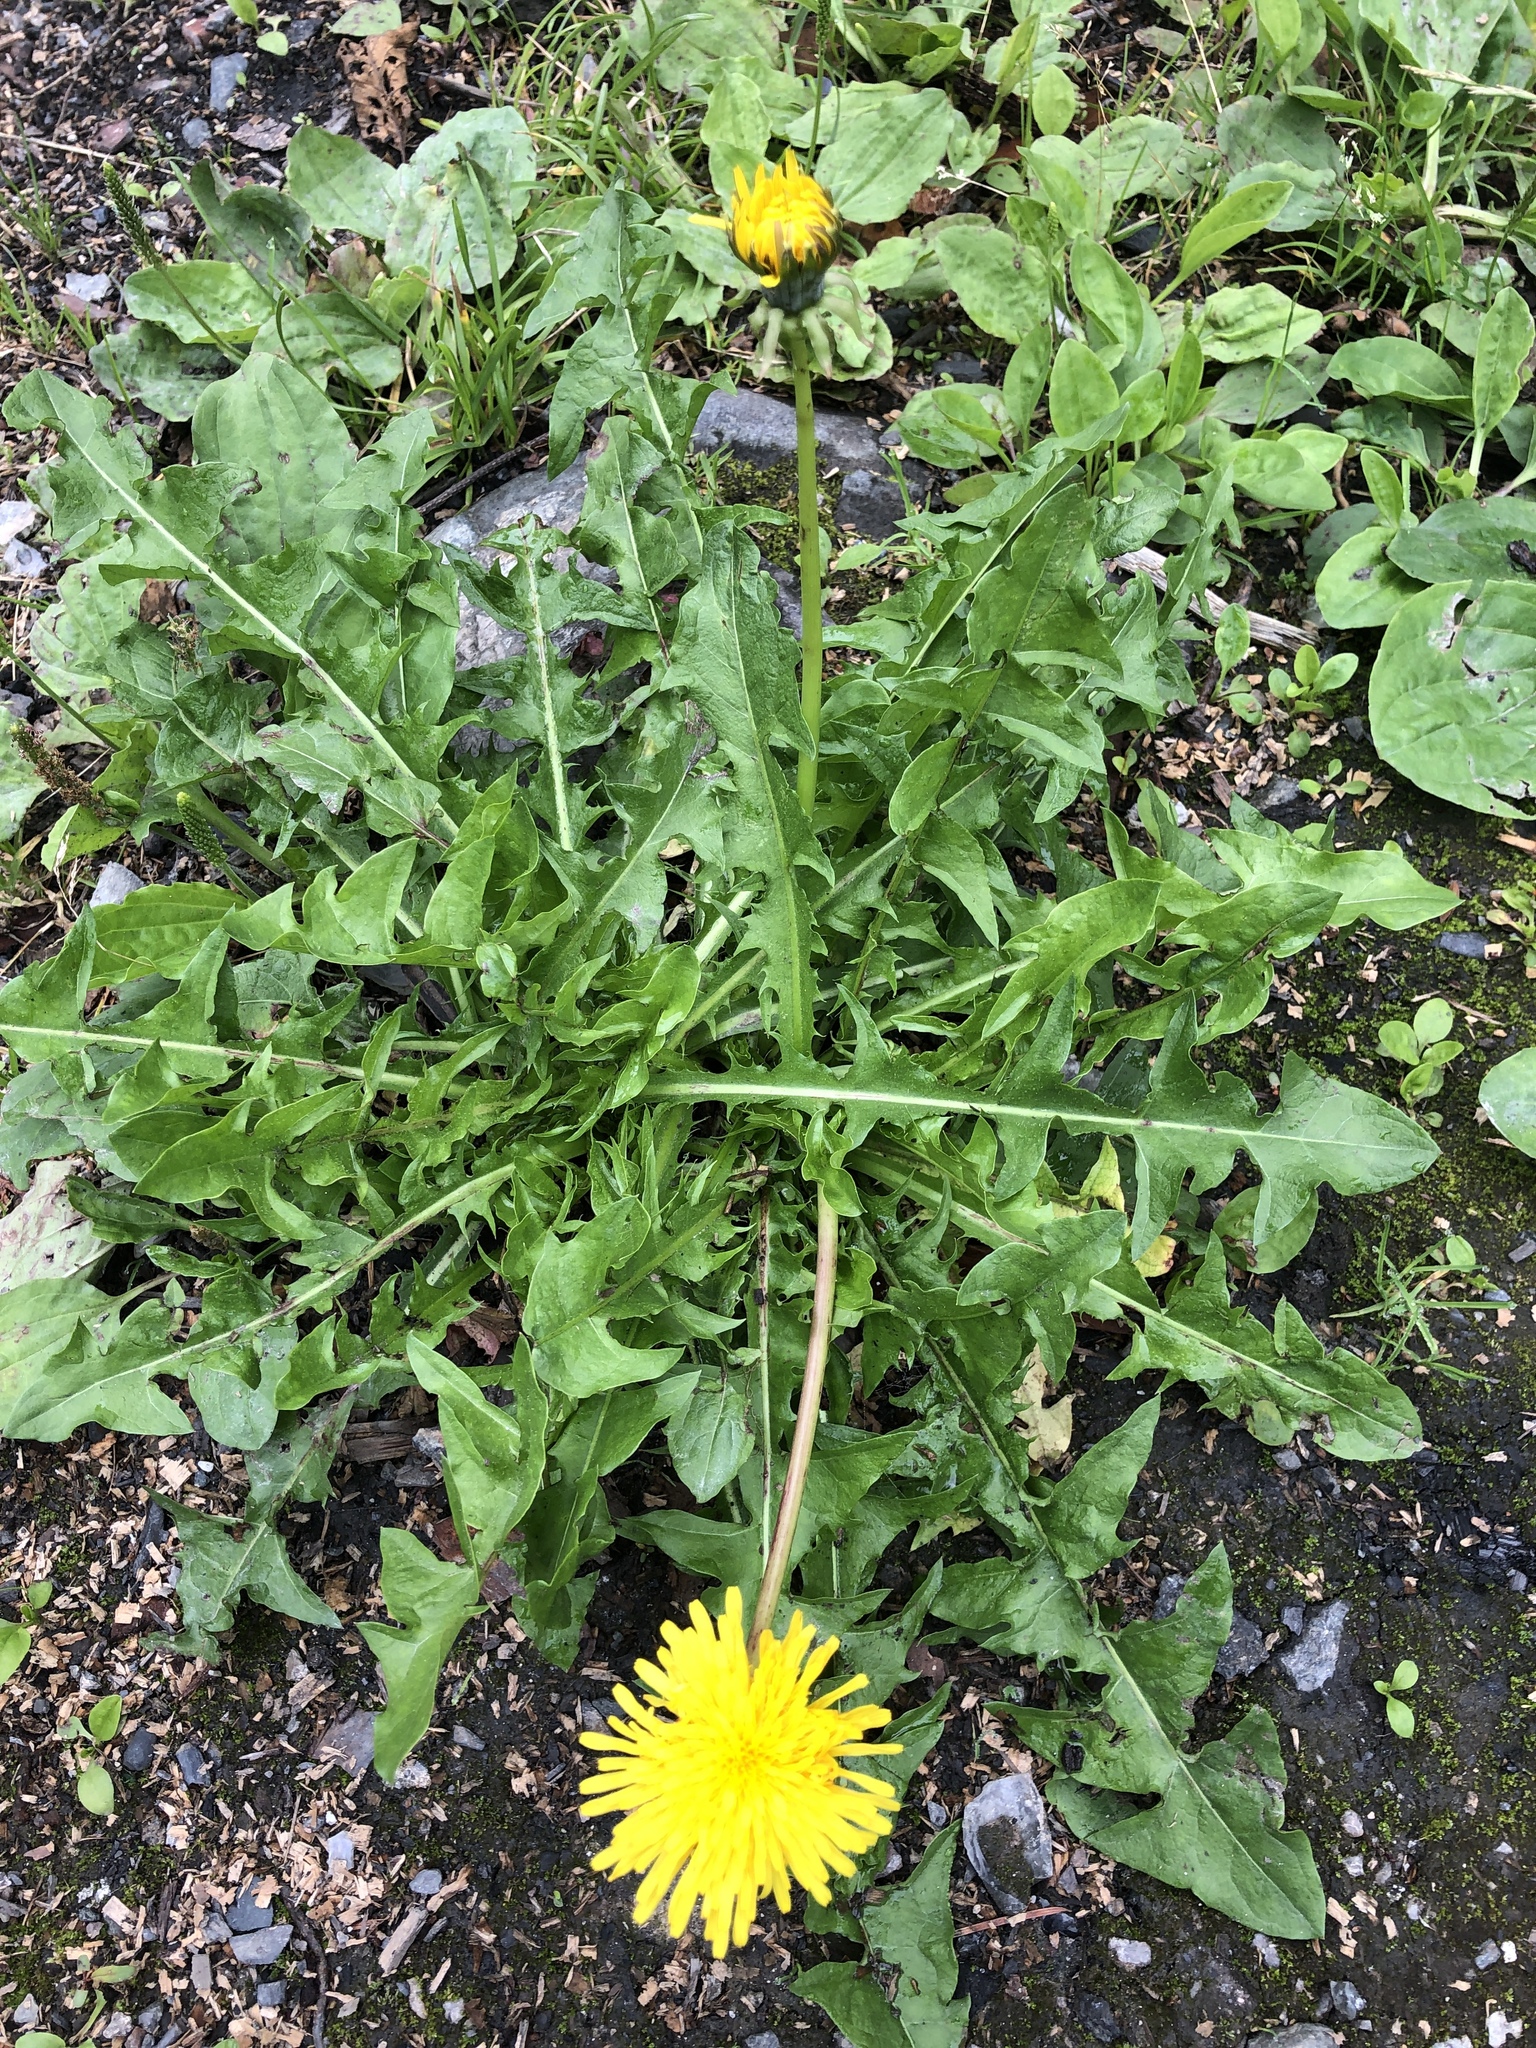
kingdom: Plantae
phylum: Tracheophyta
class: Magnoliopsida
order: Asterales
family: Asteraceae
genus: Taraxacum
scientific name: Taraxacum officinale
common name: Common dandelion
